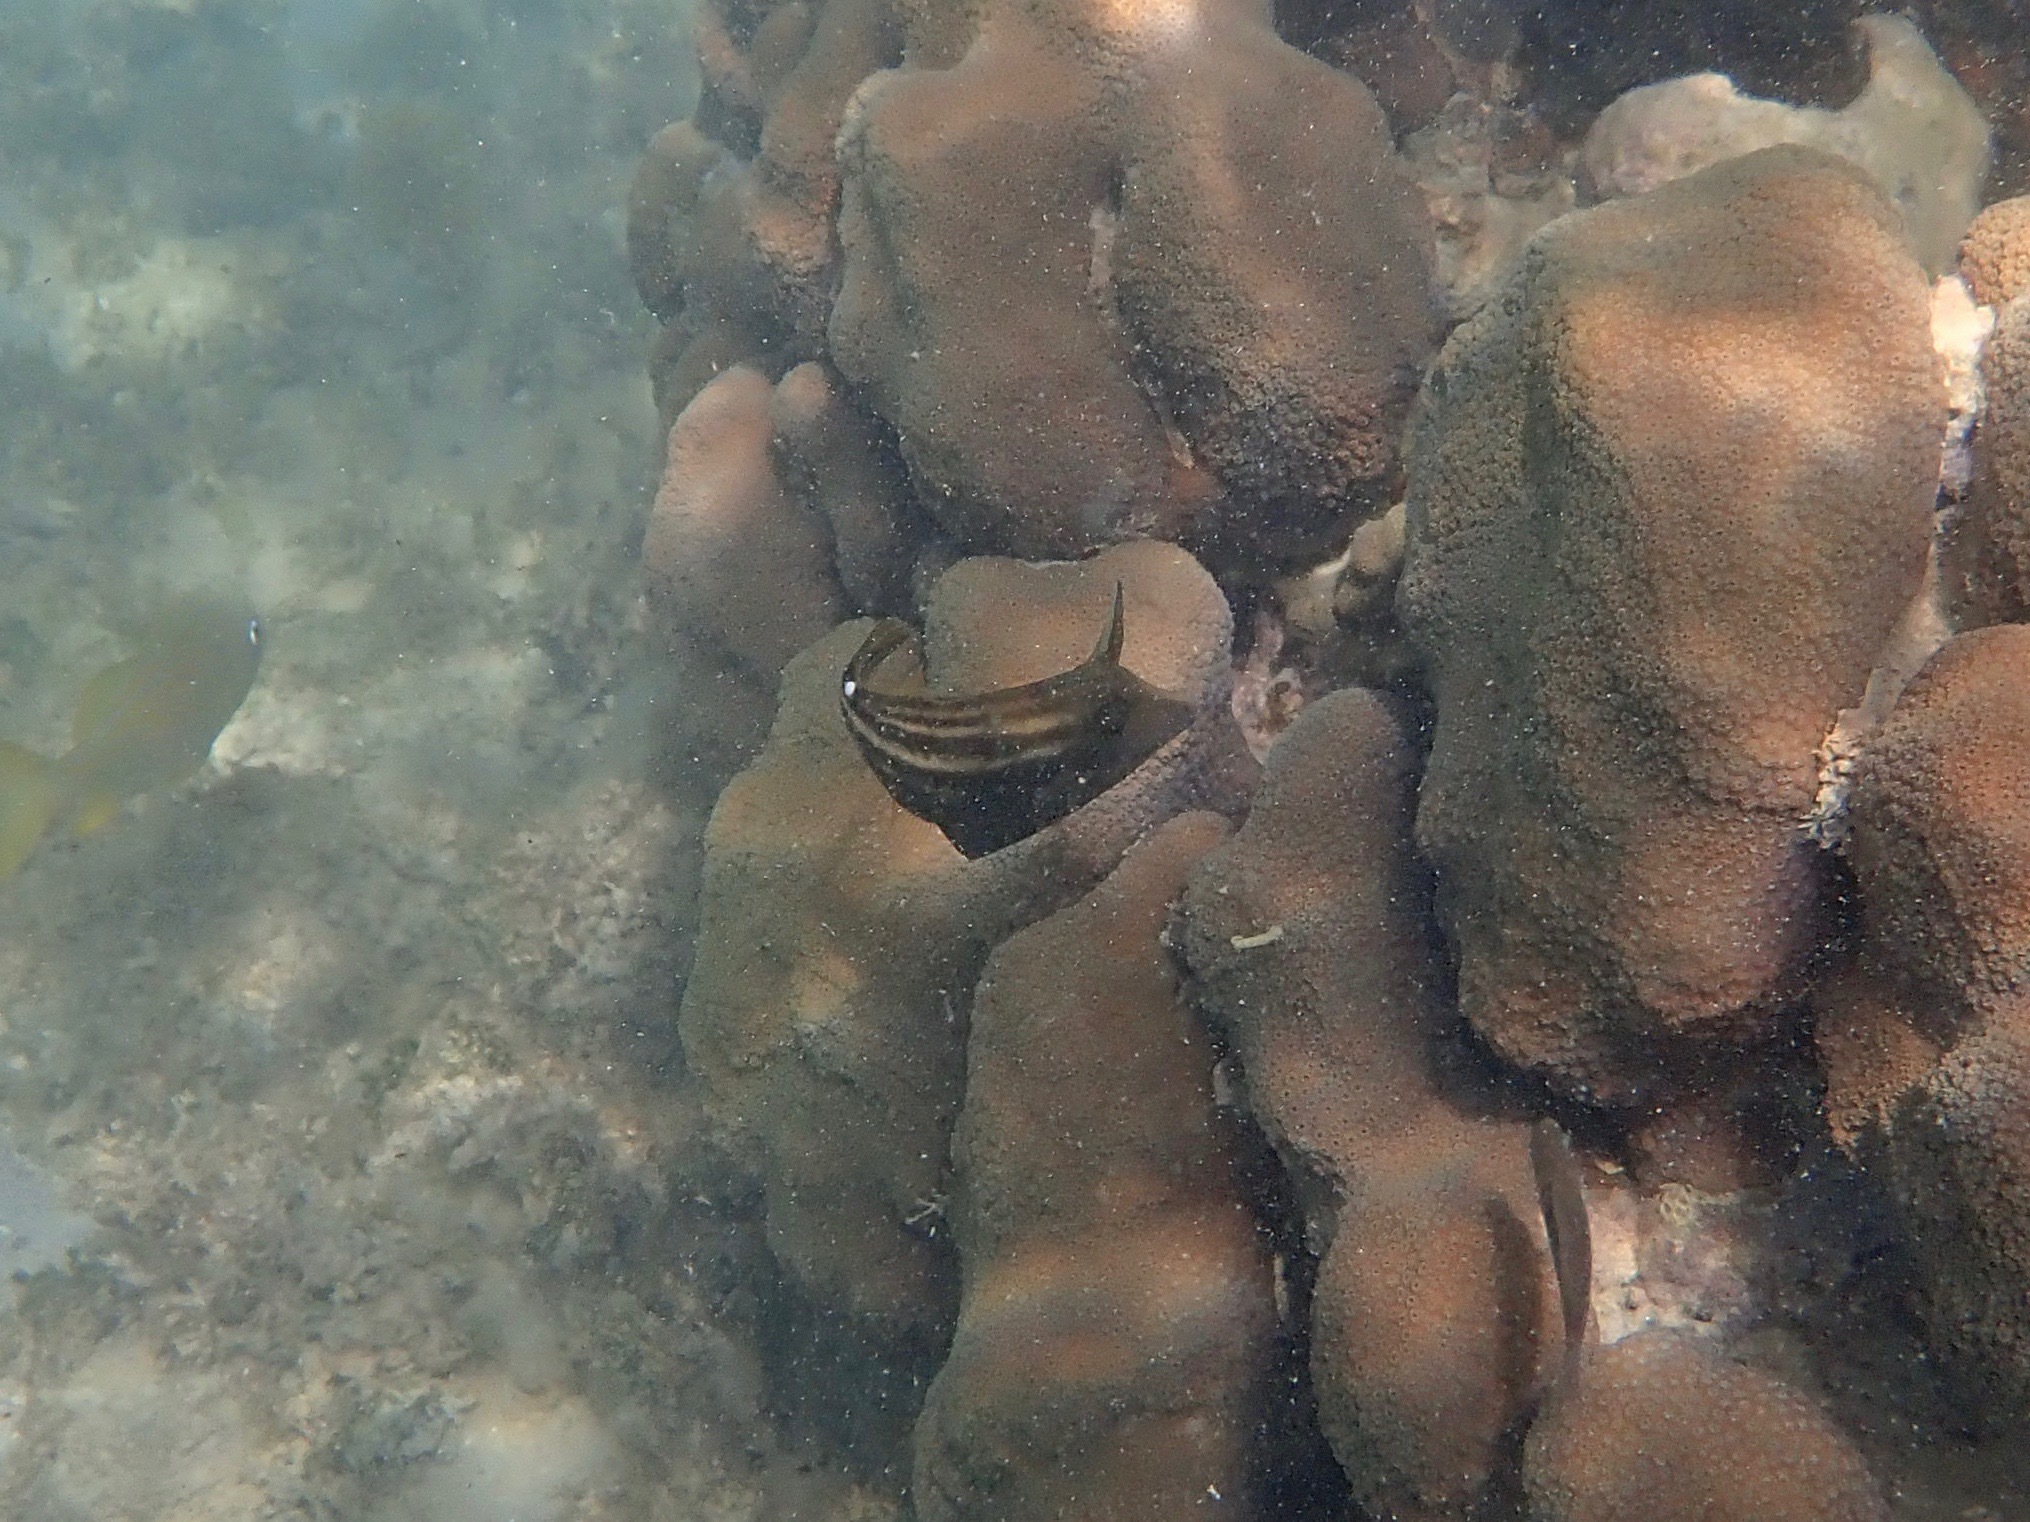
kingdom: Animalia
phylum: Chordata
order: Tetraodontiformes
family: Monacanthidae
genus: Cantherhines
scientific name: Cantherhines pullus
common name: Orangespotted filefish
